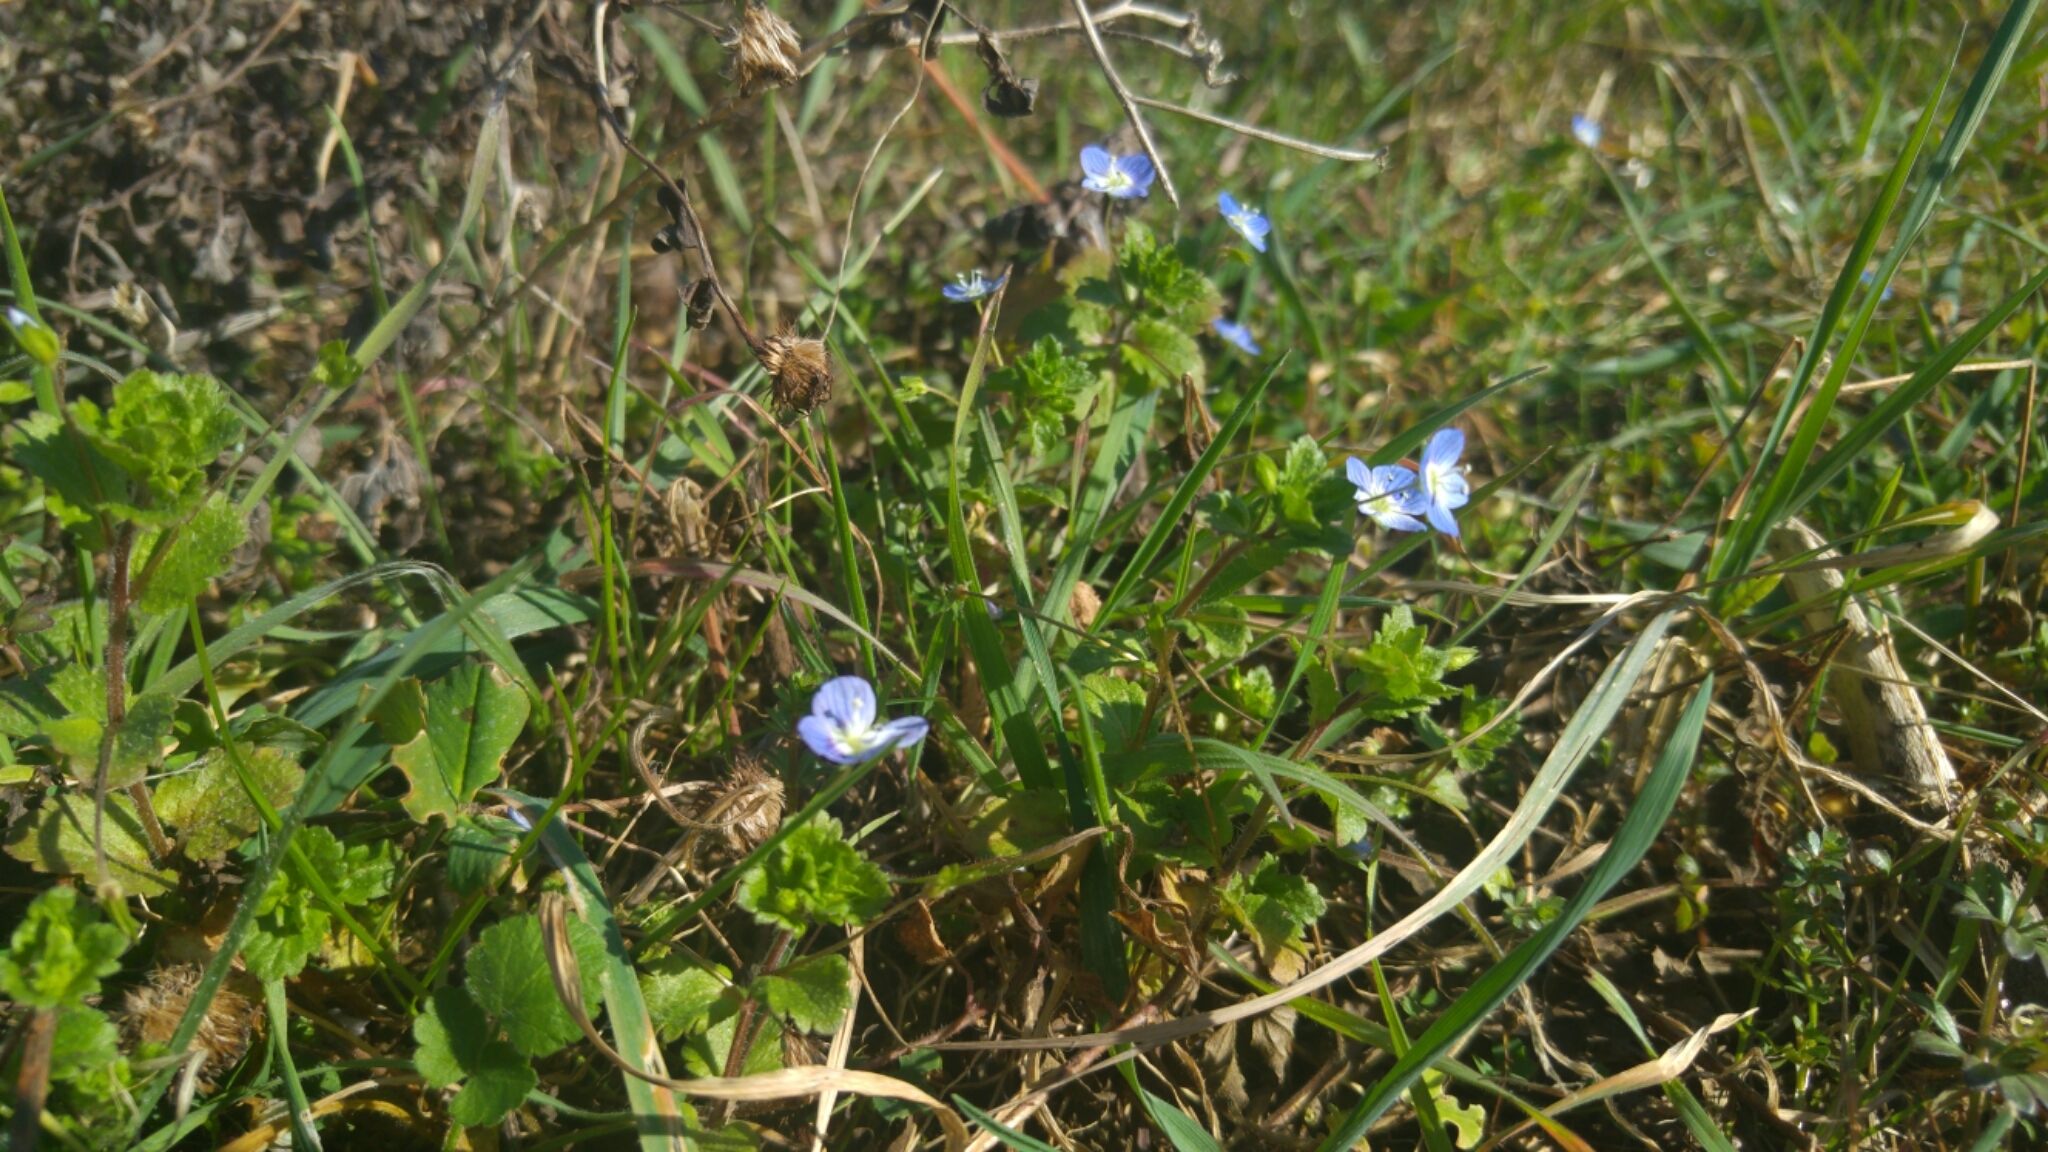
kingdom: Plantae
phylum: Tracheophyta
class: Magnoliopsida
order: Lamiales
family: Plantaginaceae
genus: Veronica
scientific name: Veronica persica
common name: Common field-speedwell
